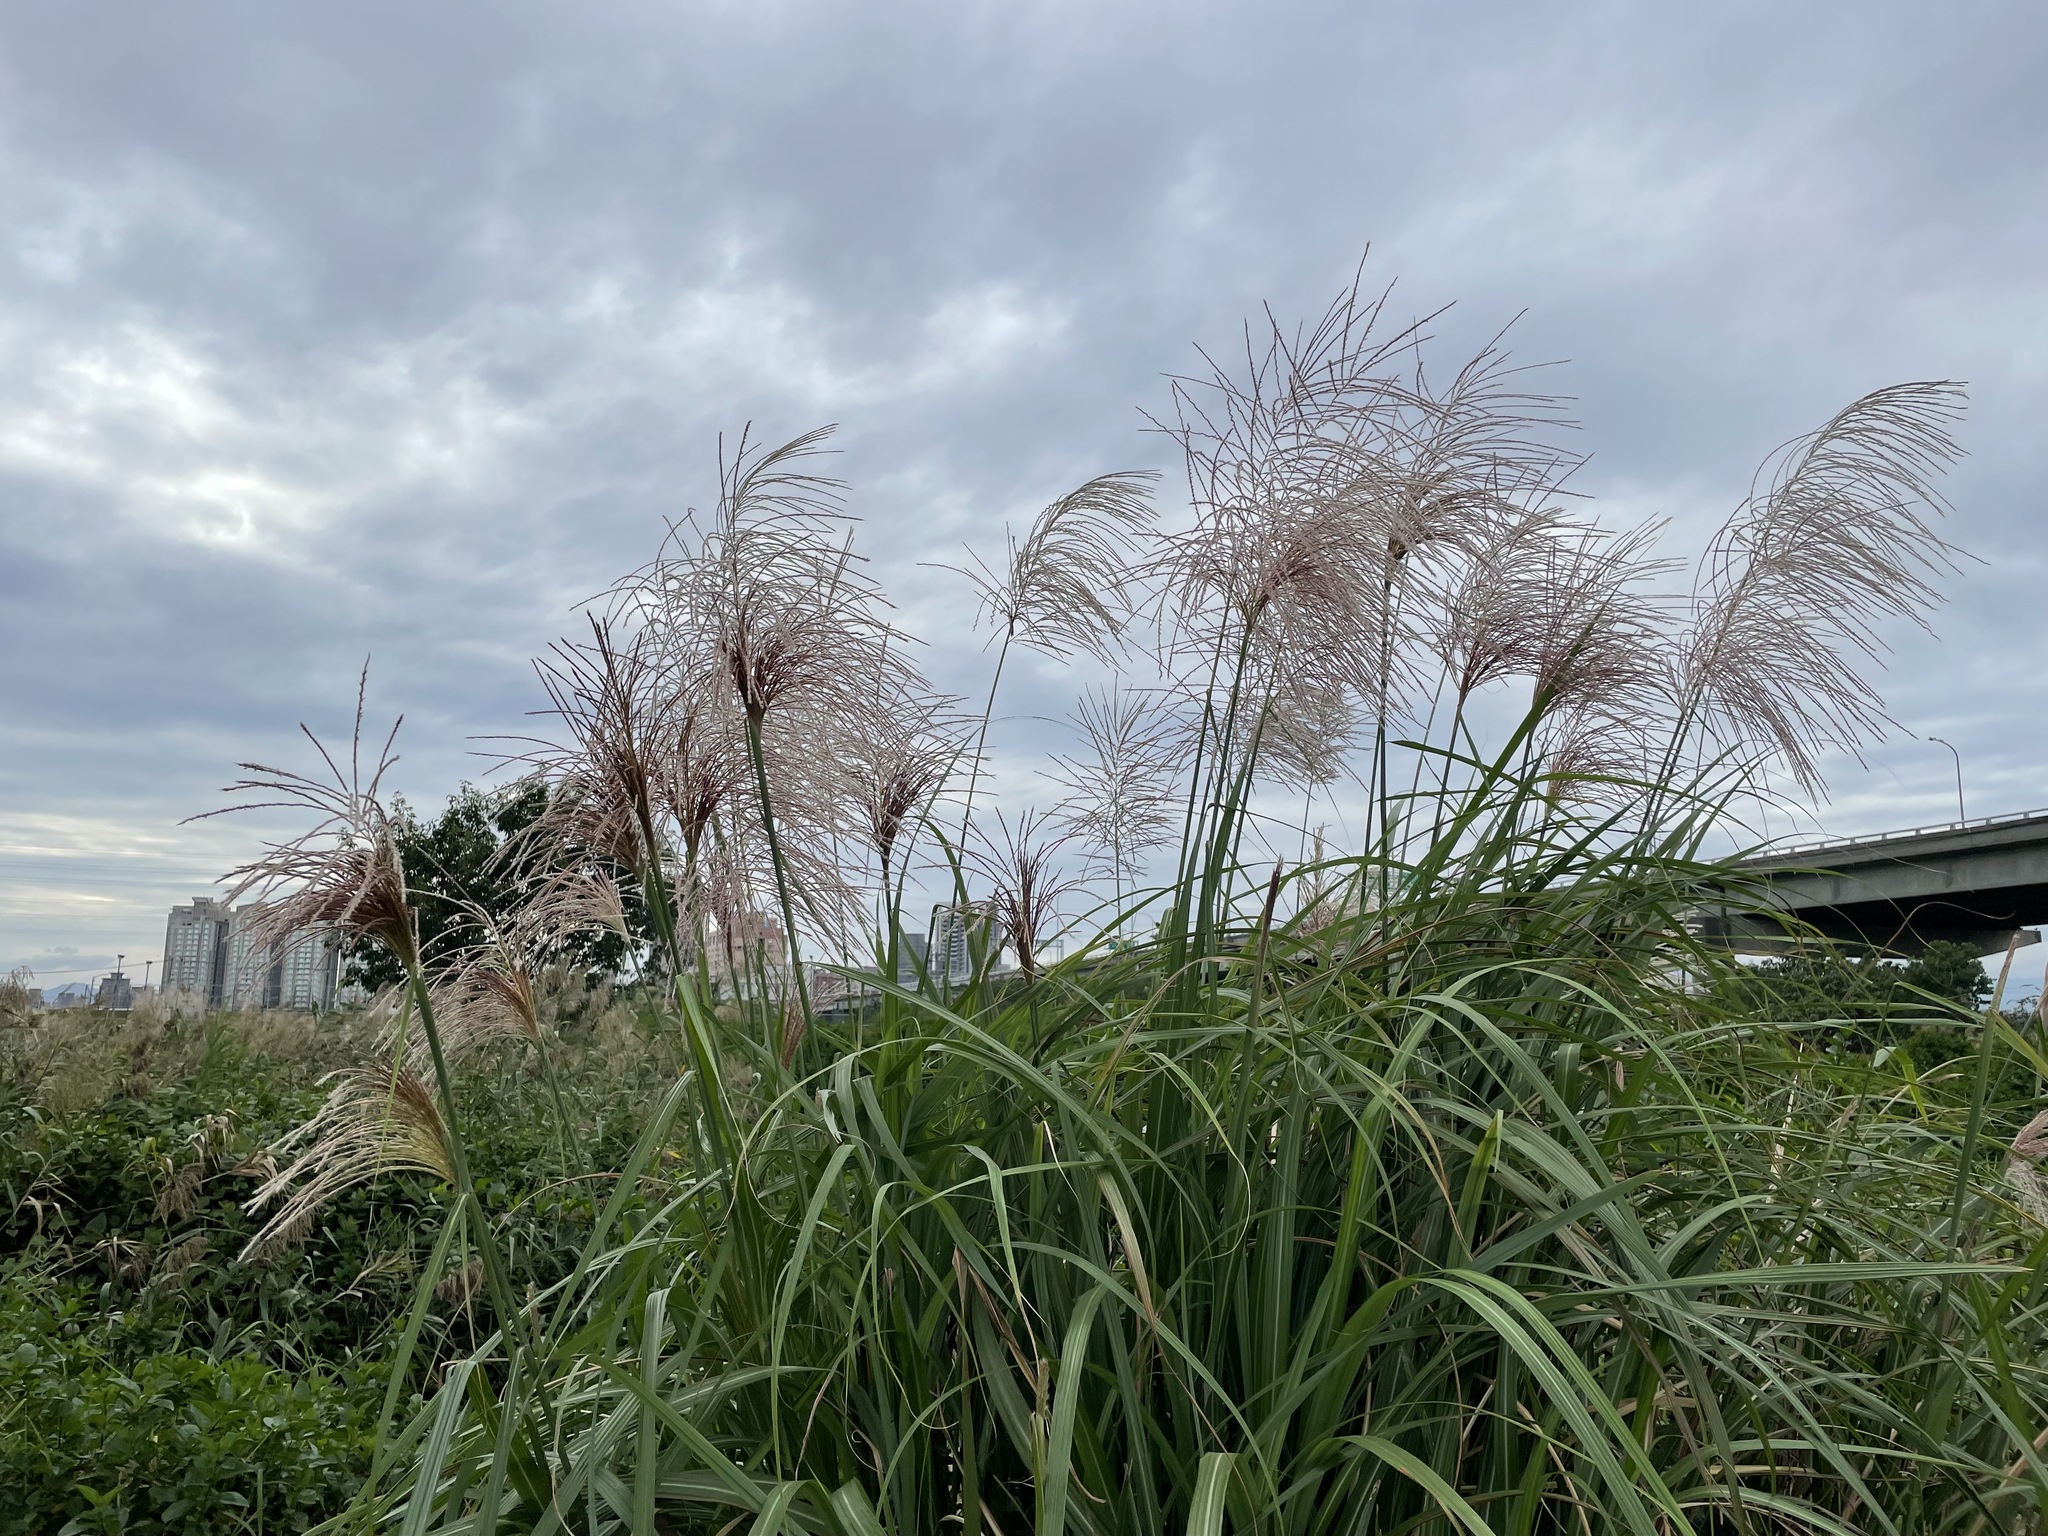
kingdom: Plantae
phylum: Tracheophyta
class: Liliopsida
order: Poales
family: Poaceae
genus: Miscanthus
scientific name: Miscanthus sinensis
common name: Chinese silvergrass
